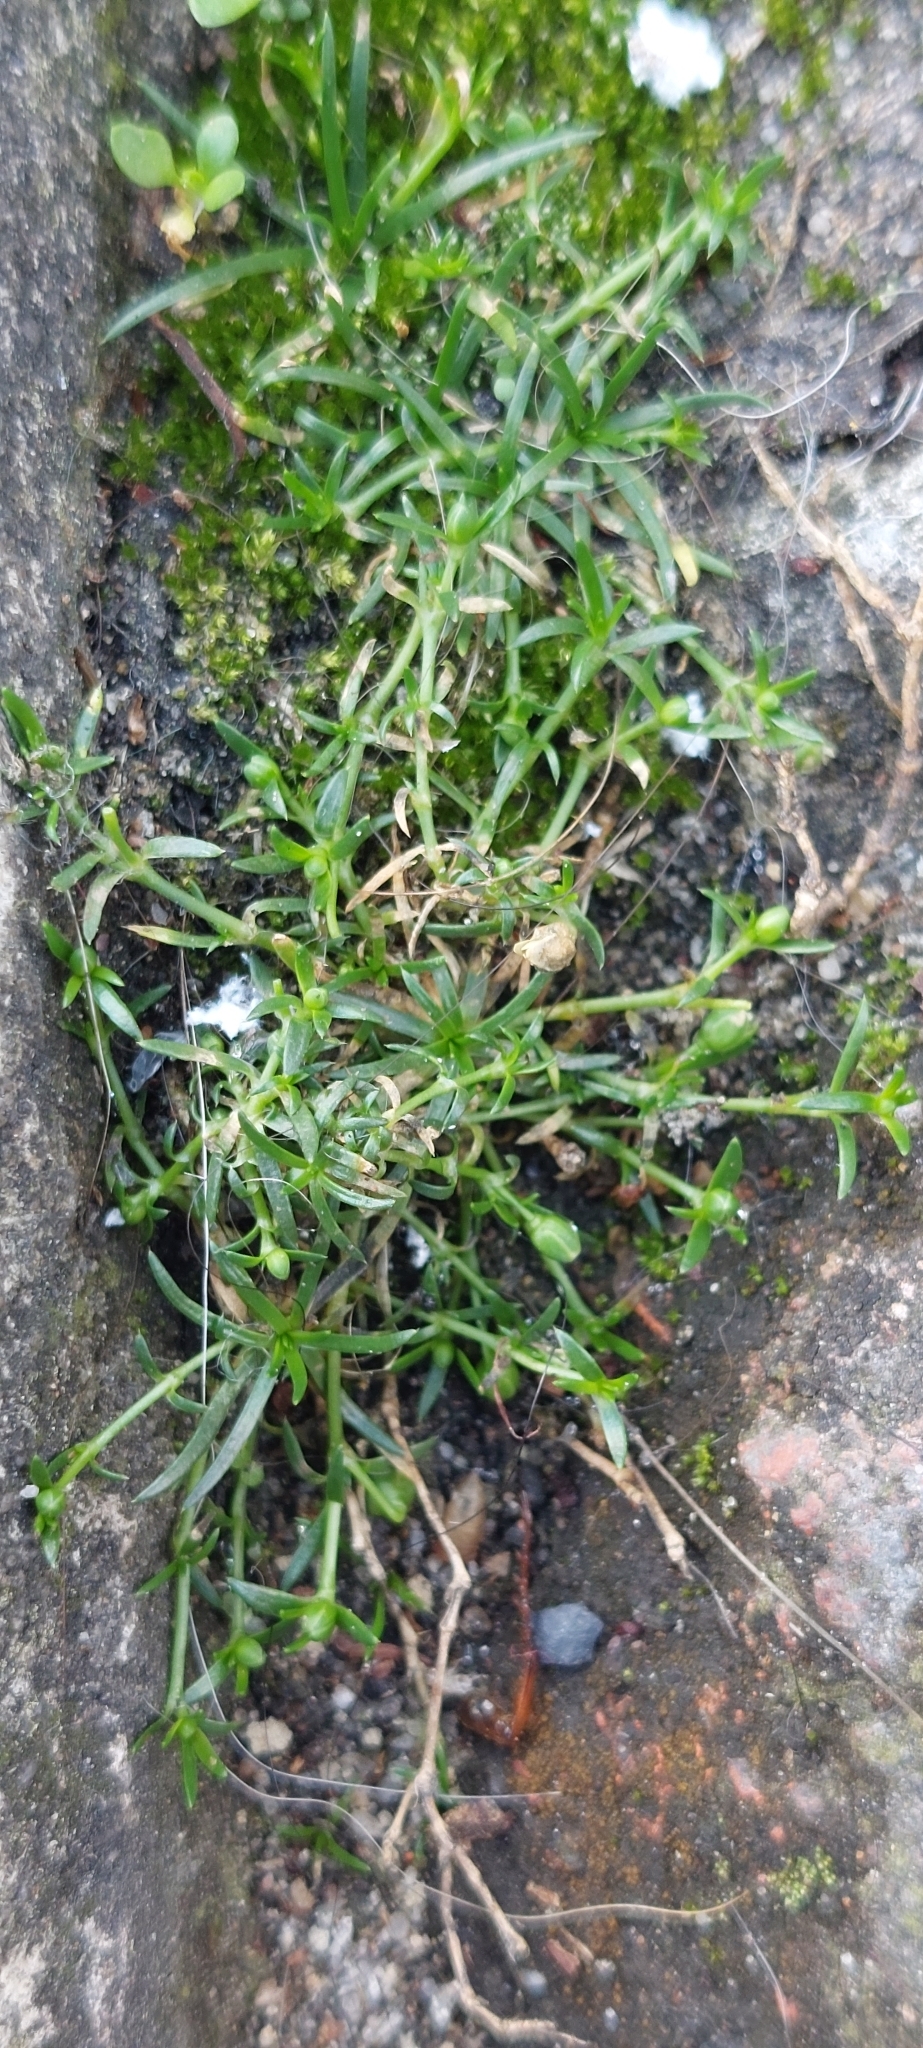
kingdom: Plantae
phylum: Tracheophyta
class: Magnoliopsida
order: Caryophyllales
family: Caryophyllaceae
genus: Sagina
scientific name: Sagina procumbens
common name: Procumbent pearlwort
